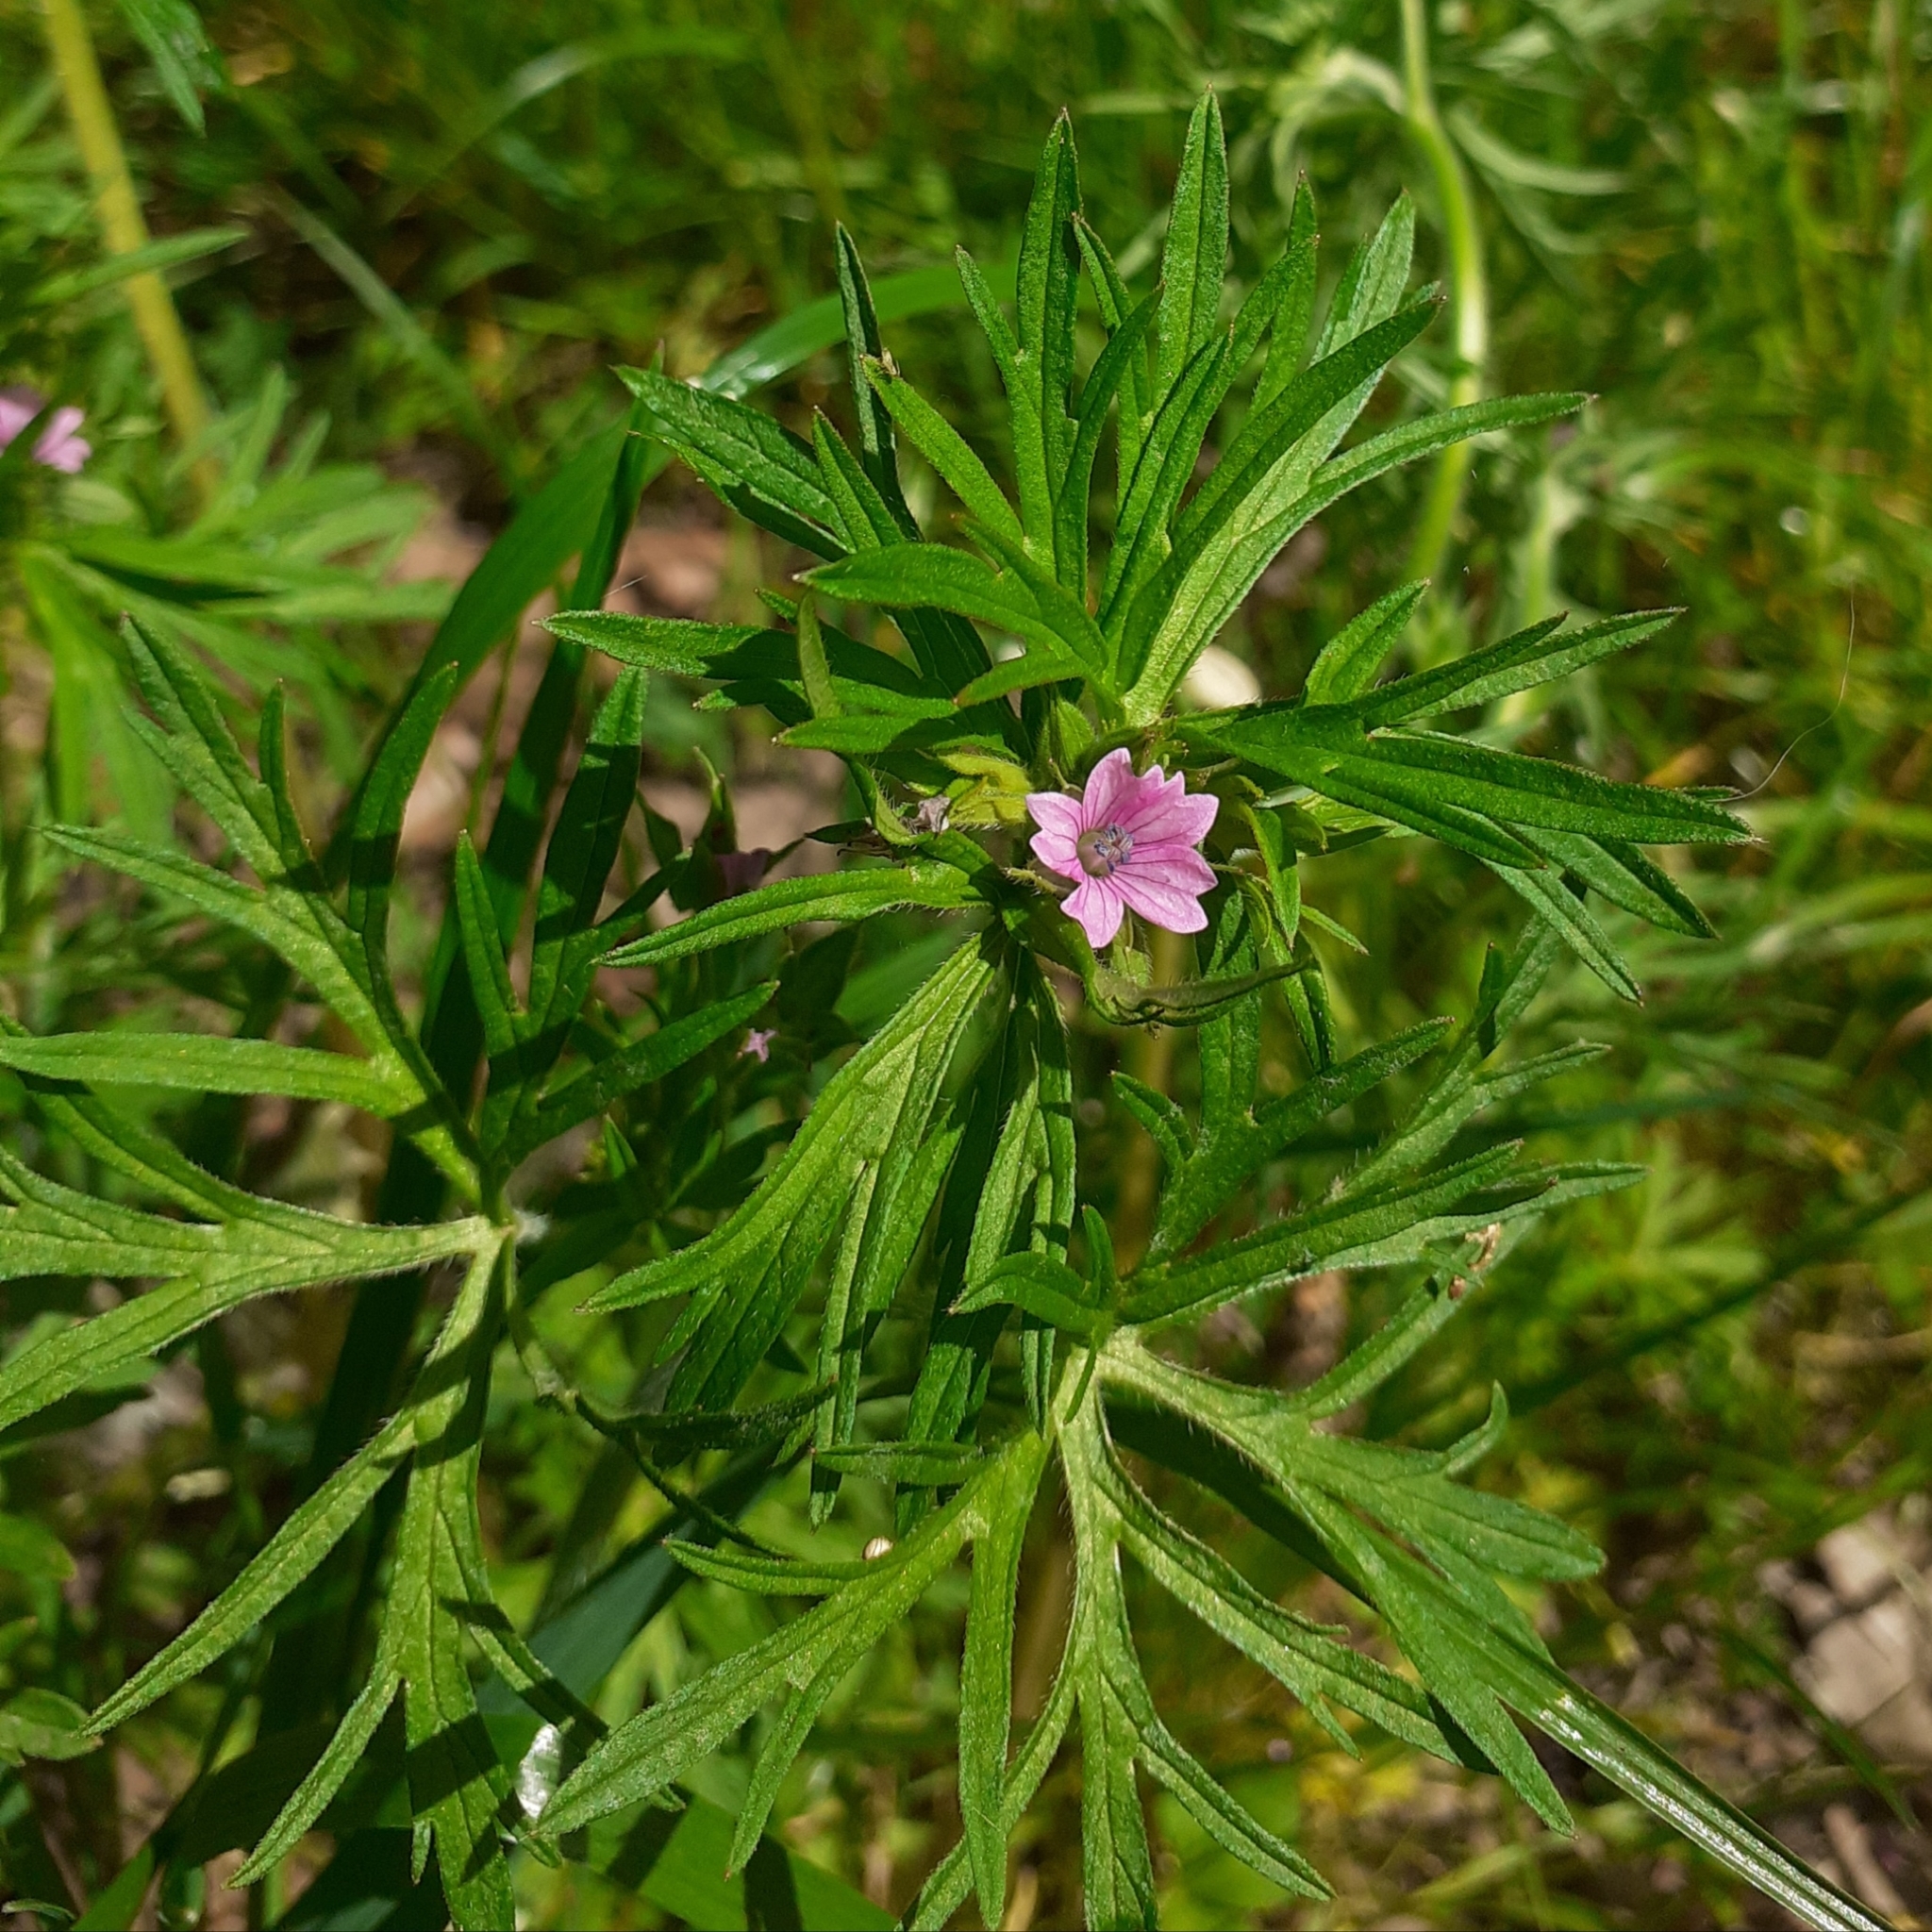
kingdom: Plantae
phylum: Tracheophyta
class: Magnoliopsida
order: Geraniales
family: Geraniaceae
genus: Geranium
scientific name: Geranium dissectum
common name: Cut-leaved crane's-bill
